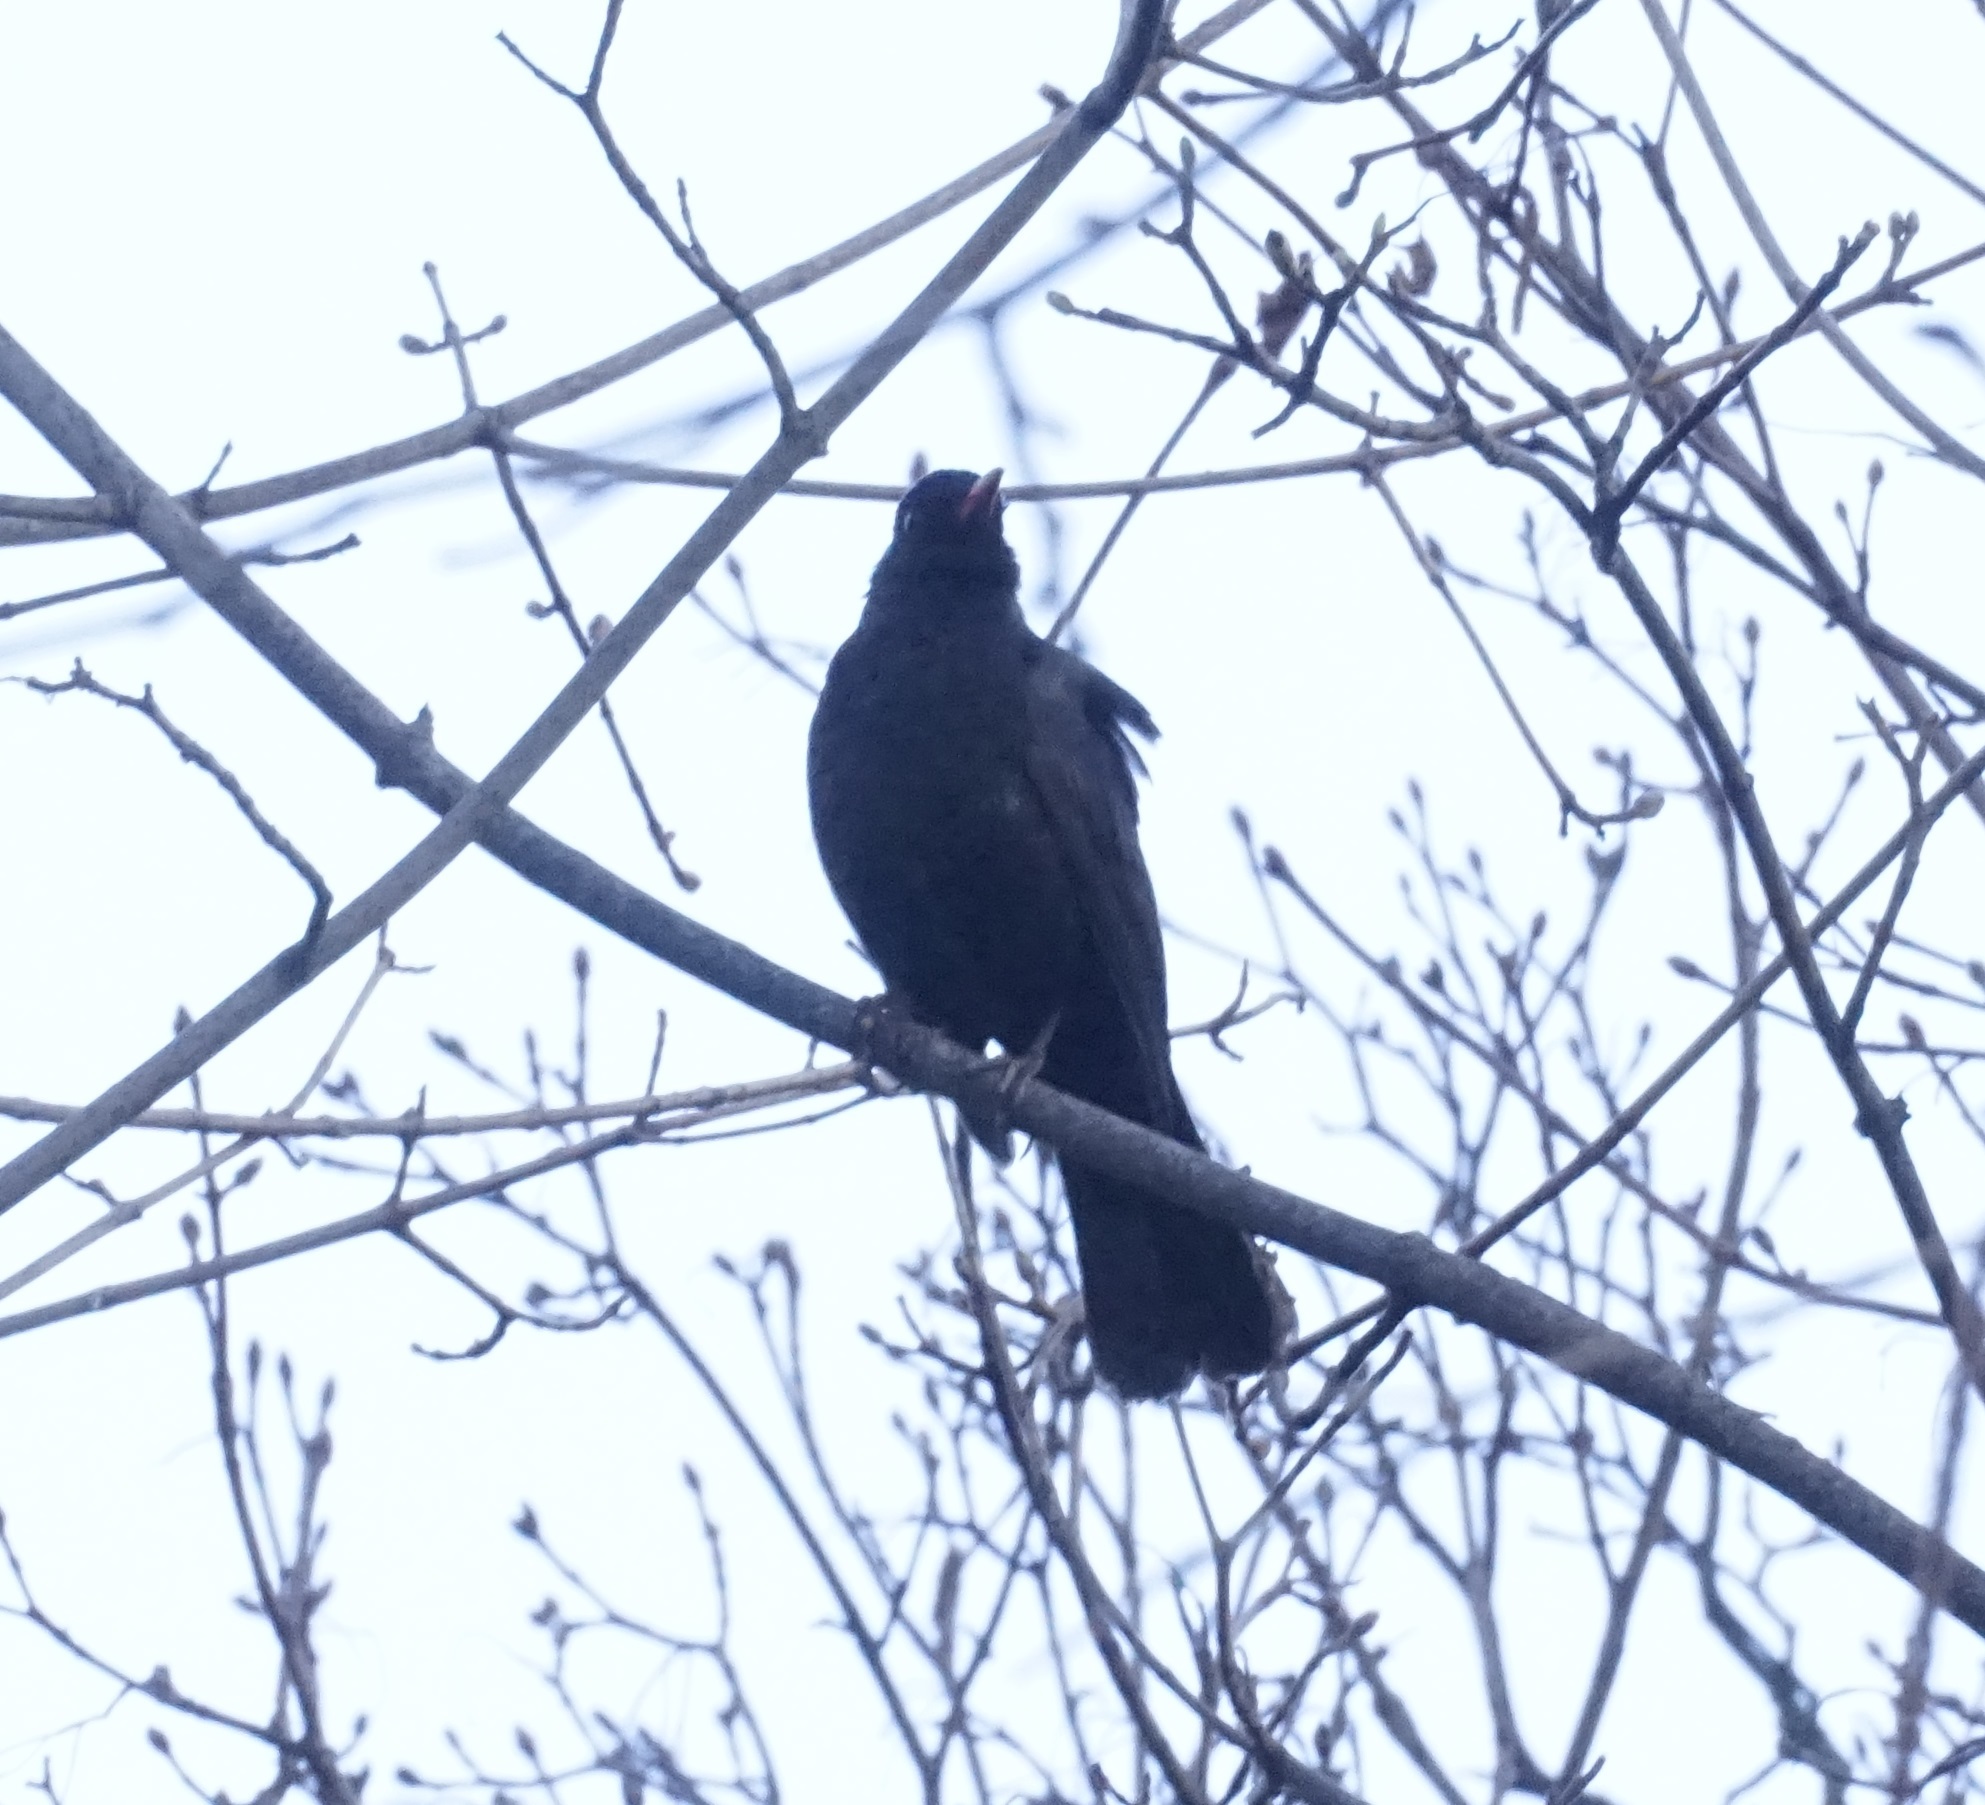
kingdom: Animalia
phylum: Chordata
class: Aves
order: Passeriformes
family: Turdidae
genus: Turdus
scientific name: Turdus merula
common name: Common blackbird
